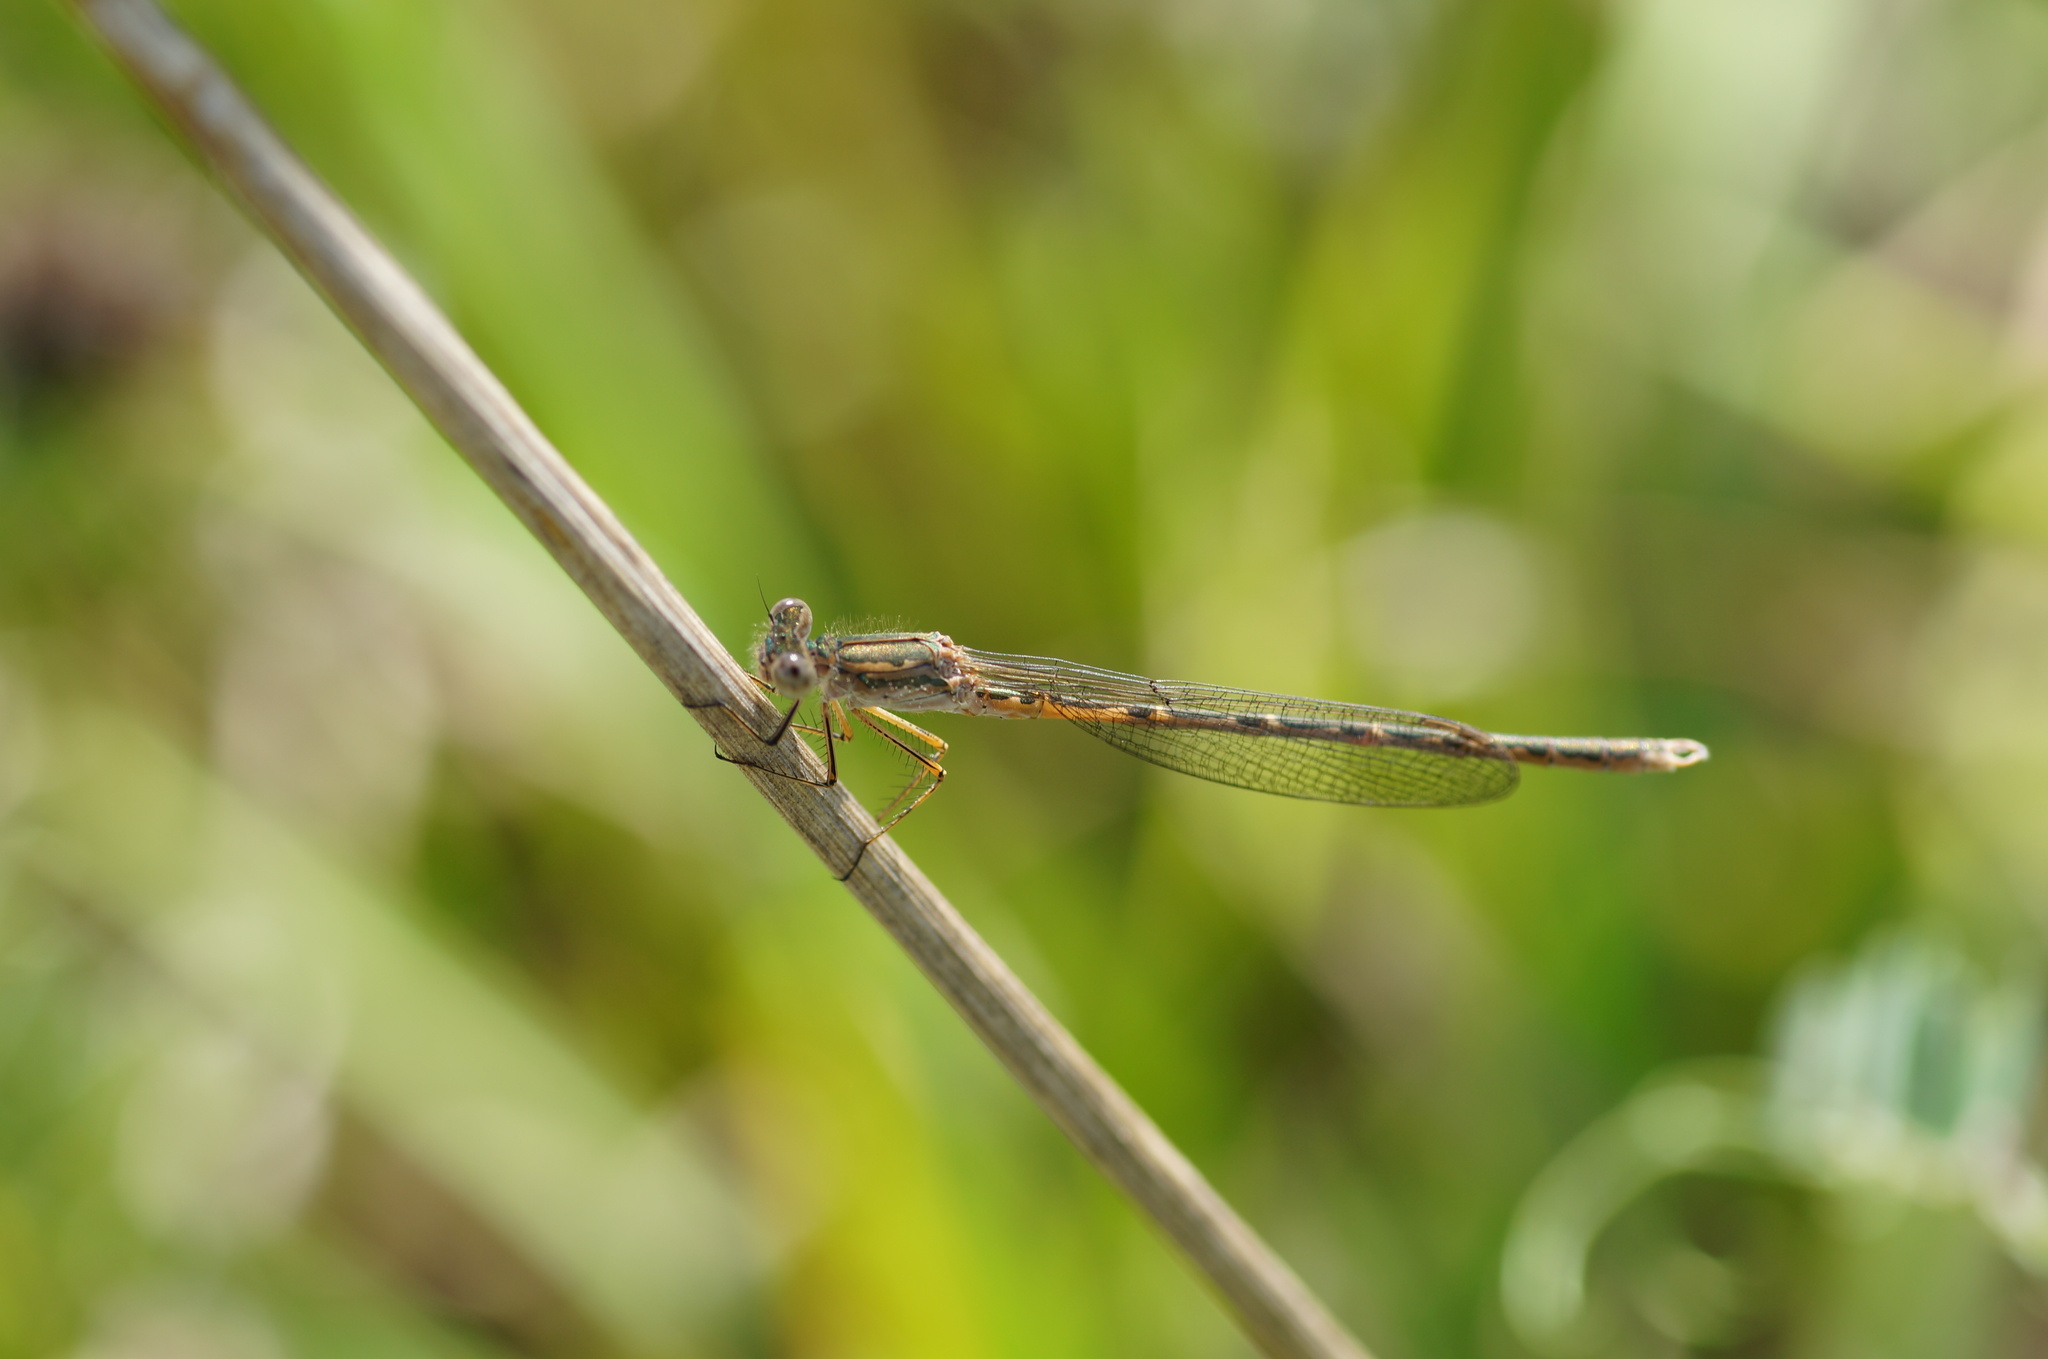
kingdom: Animalia
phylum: Arthropoda
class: Insecta
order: Odonata
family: Lestidae
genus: Sympecma
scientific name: Sympecma paedisca
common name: Siberian winter damsel
